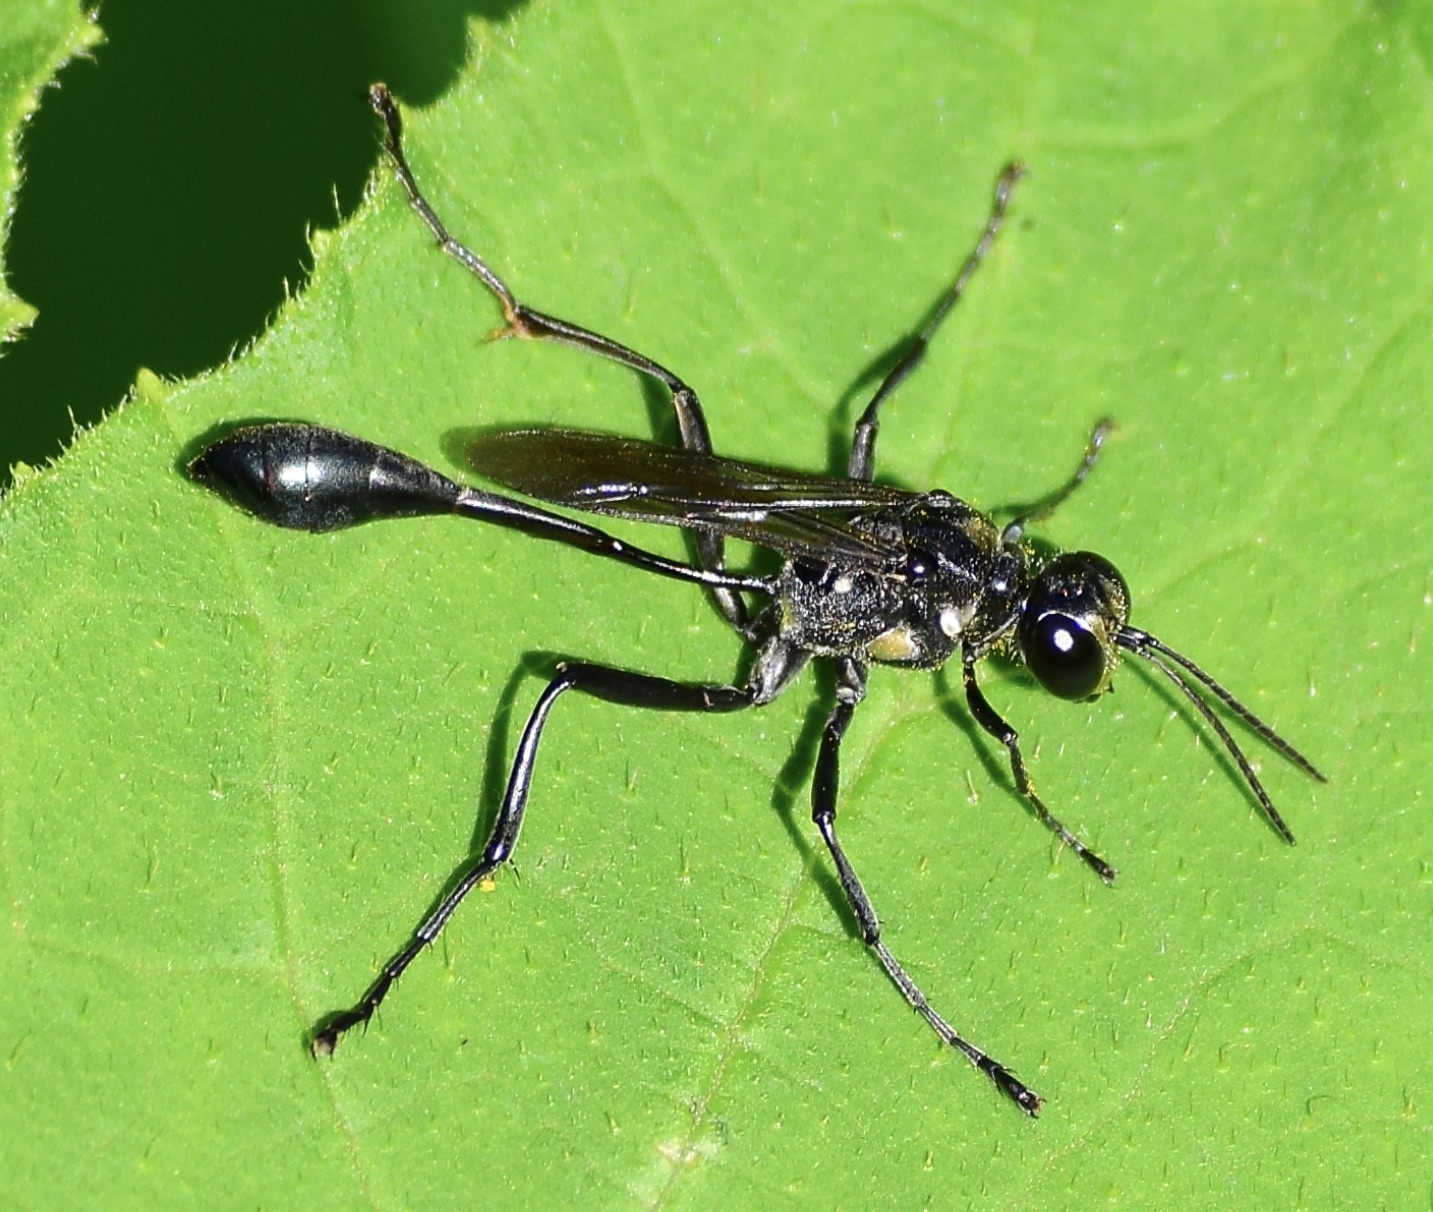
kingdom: Animalia
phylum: Arthropoda
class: Insecta
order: Hymenoptera
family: Sphecidae
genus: Eremnophila
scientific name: Eremnophila aureonotata
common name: Gold-marked thread-waisted wasp
